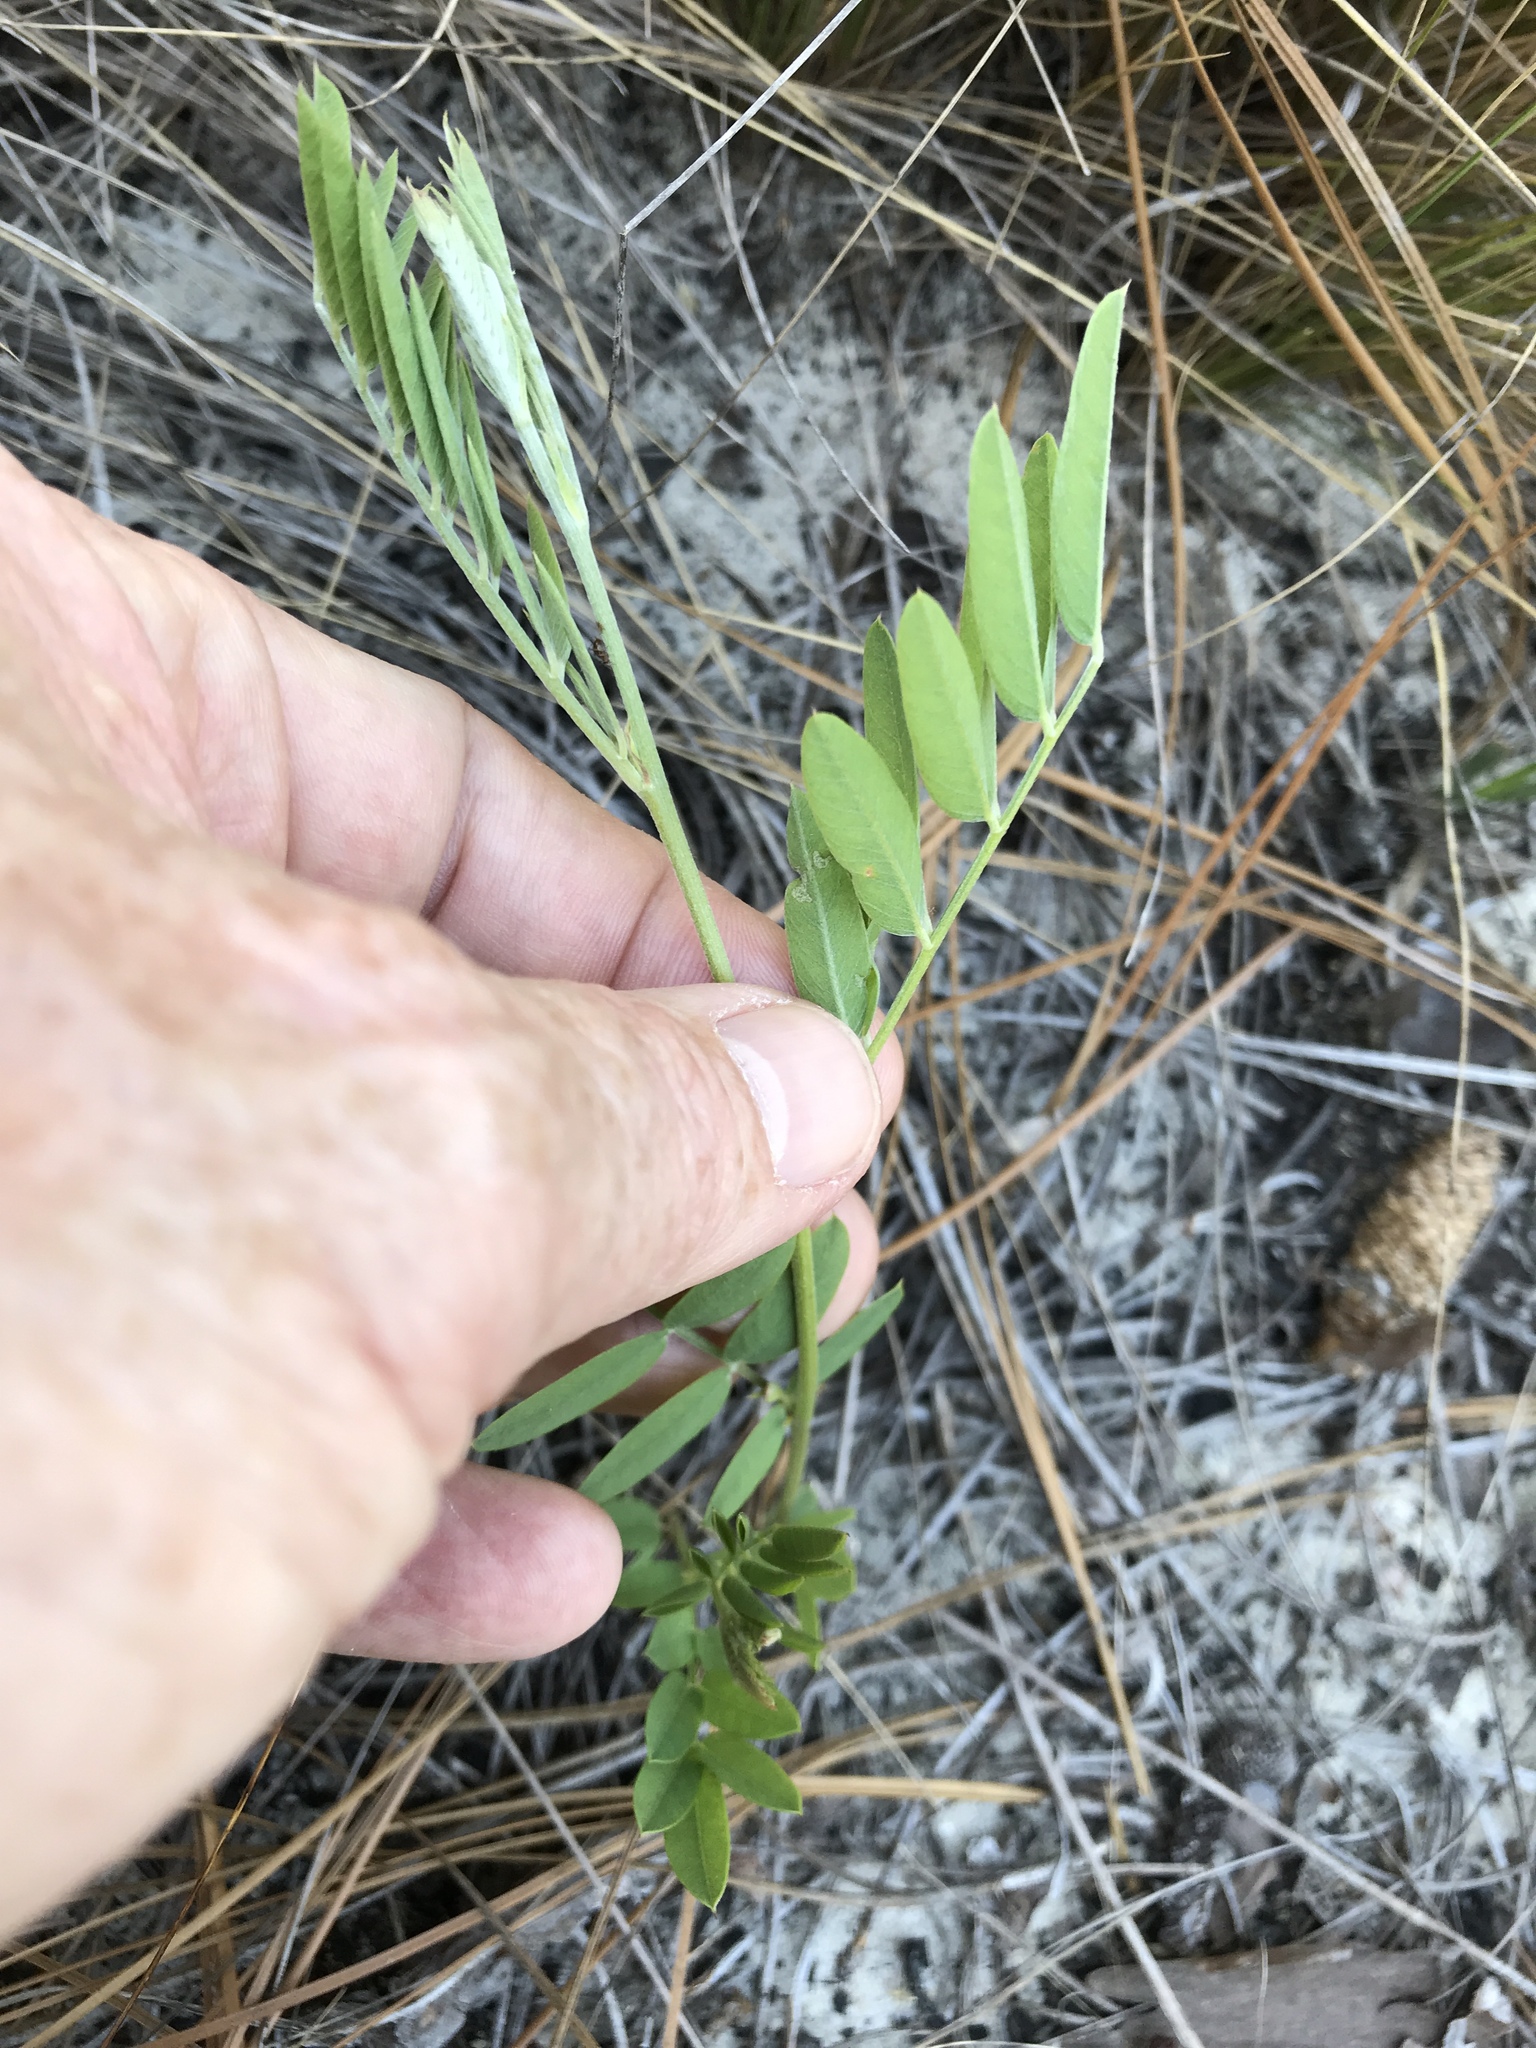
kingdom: Plantae
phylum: Tracheophyta
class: Magnoliopsida
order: Fabales
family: Fabaceae
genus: Tephrosia
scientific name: Tephrosia virginiana
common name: Rabbit-pea
